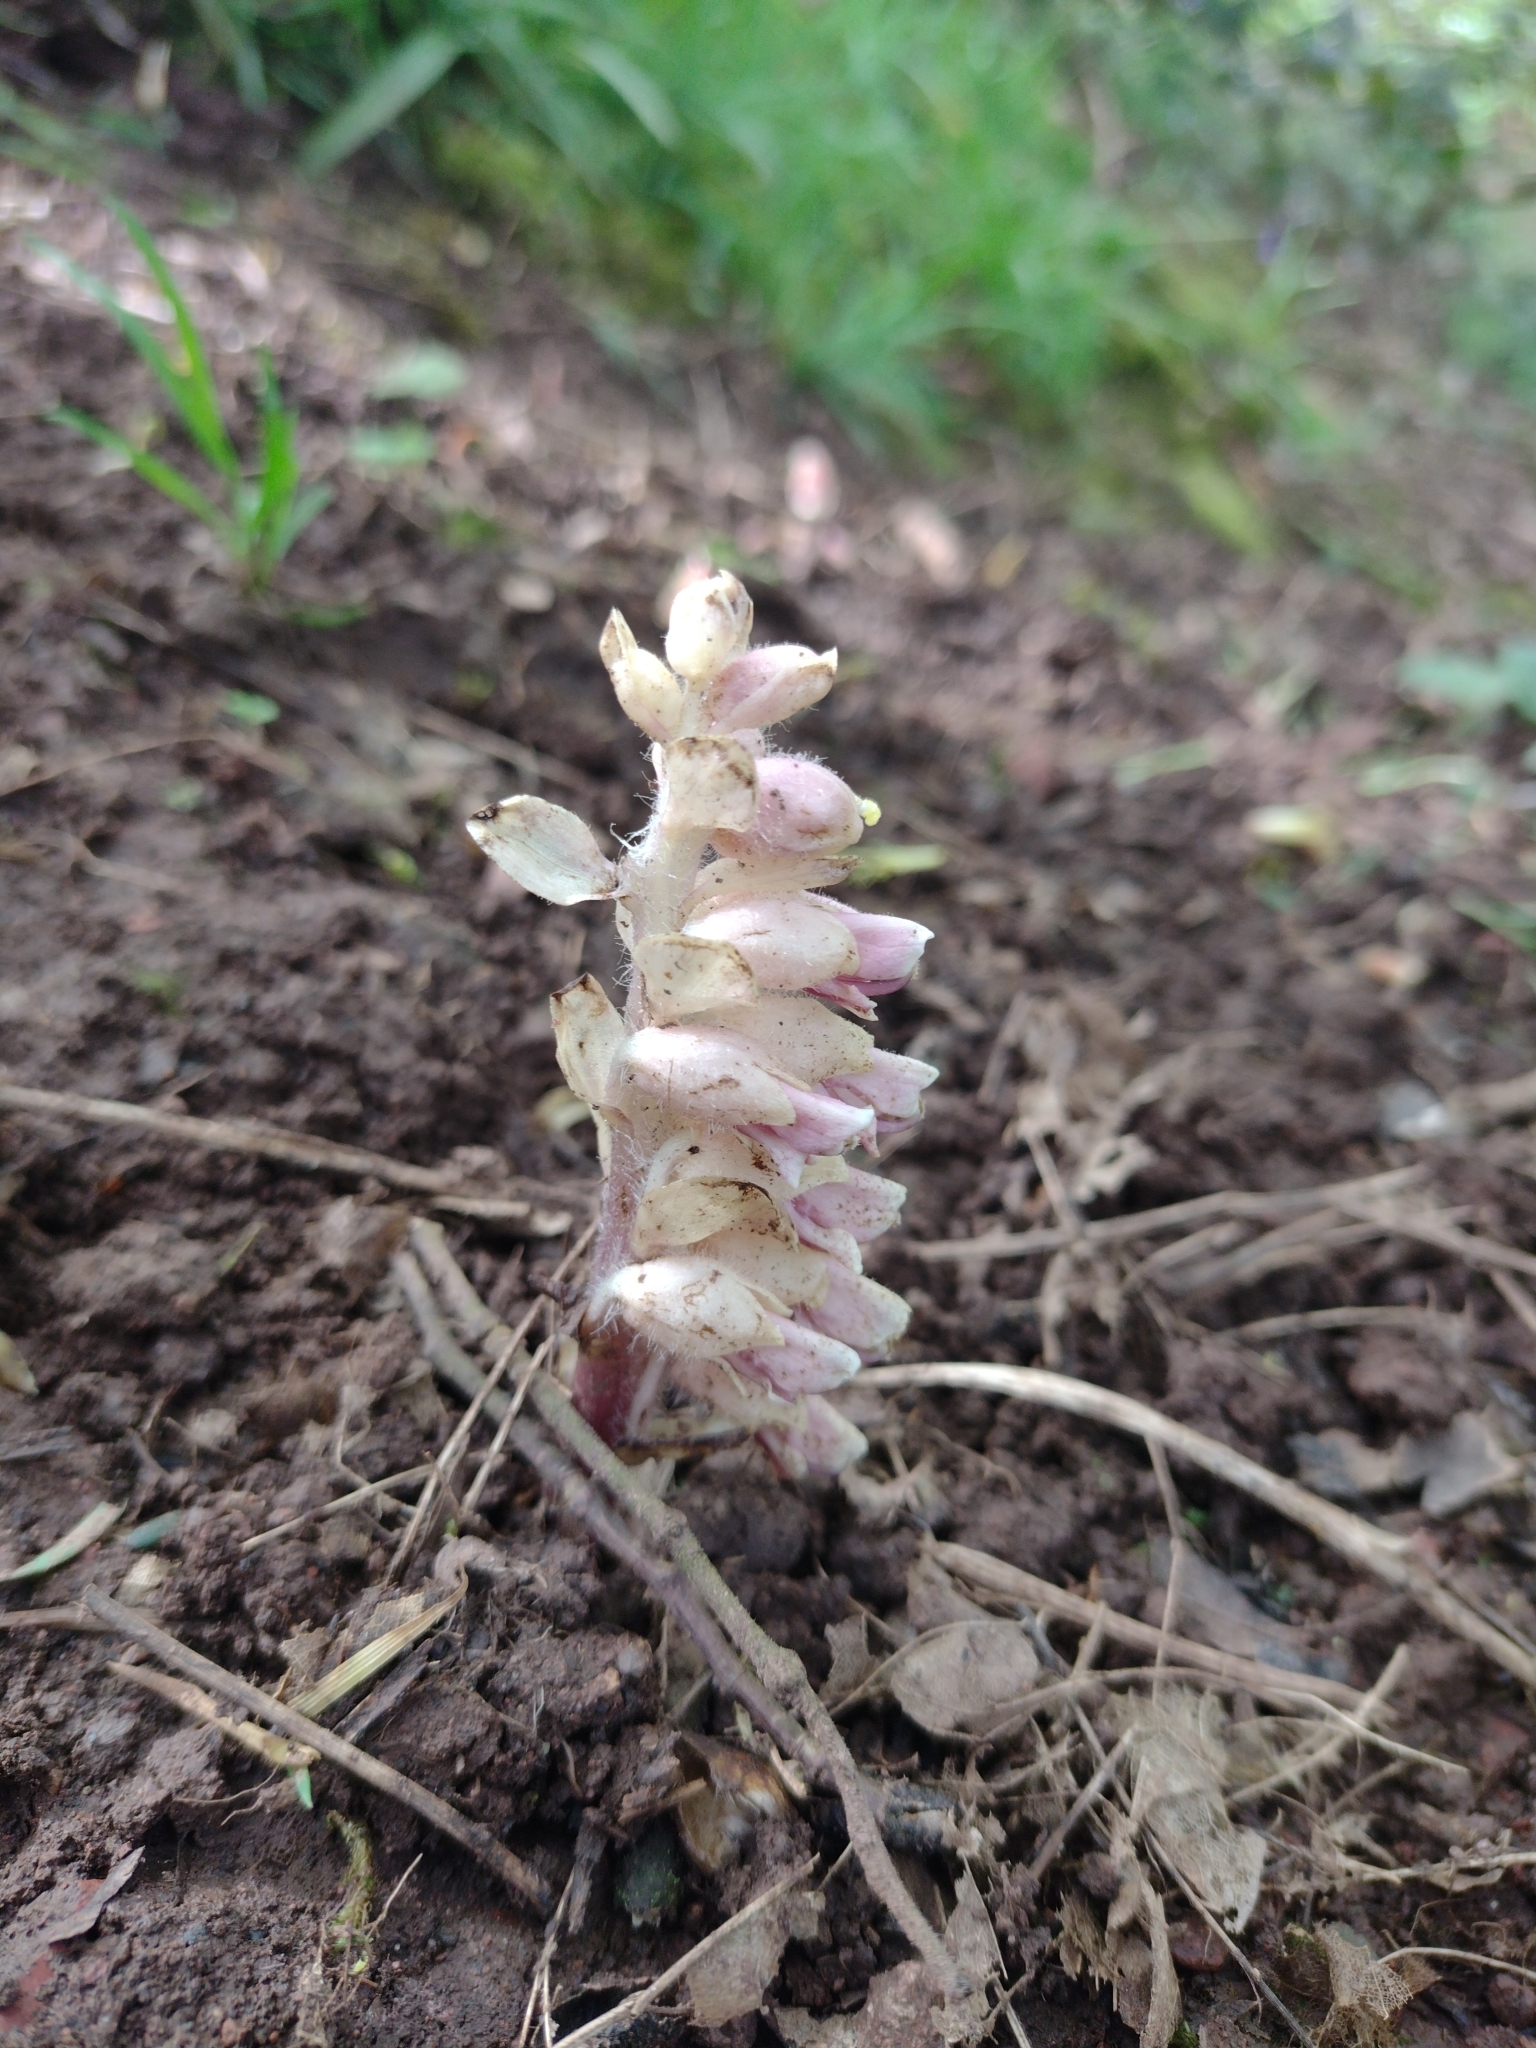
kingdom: Plantae
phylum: Tracheophyta
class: Magnoliopsida
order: Lamiales
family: Orobanchaceae
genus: Lathraea
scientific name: Lathraea squamaria
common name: Toothwort
